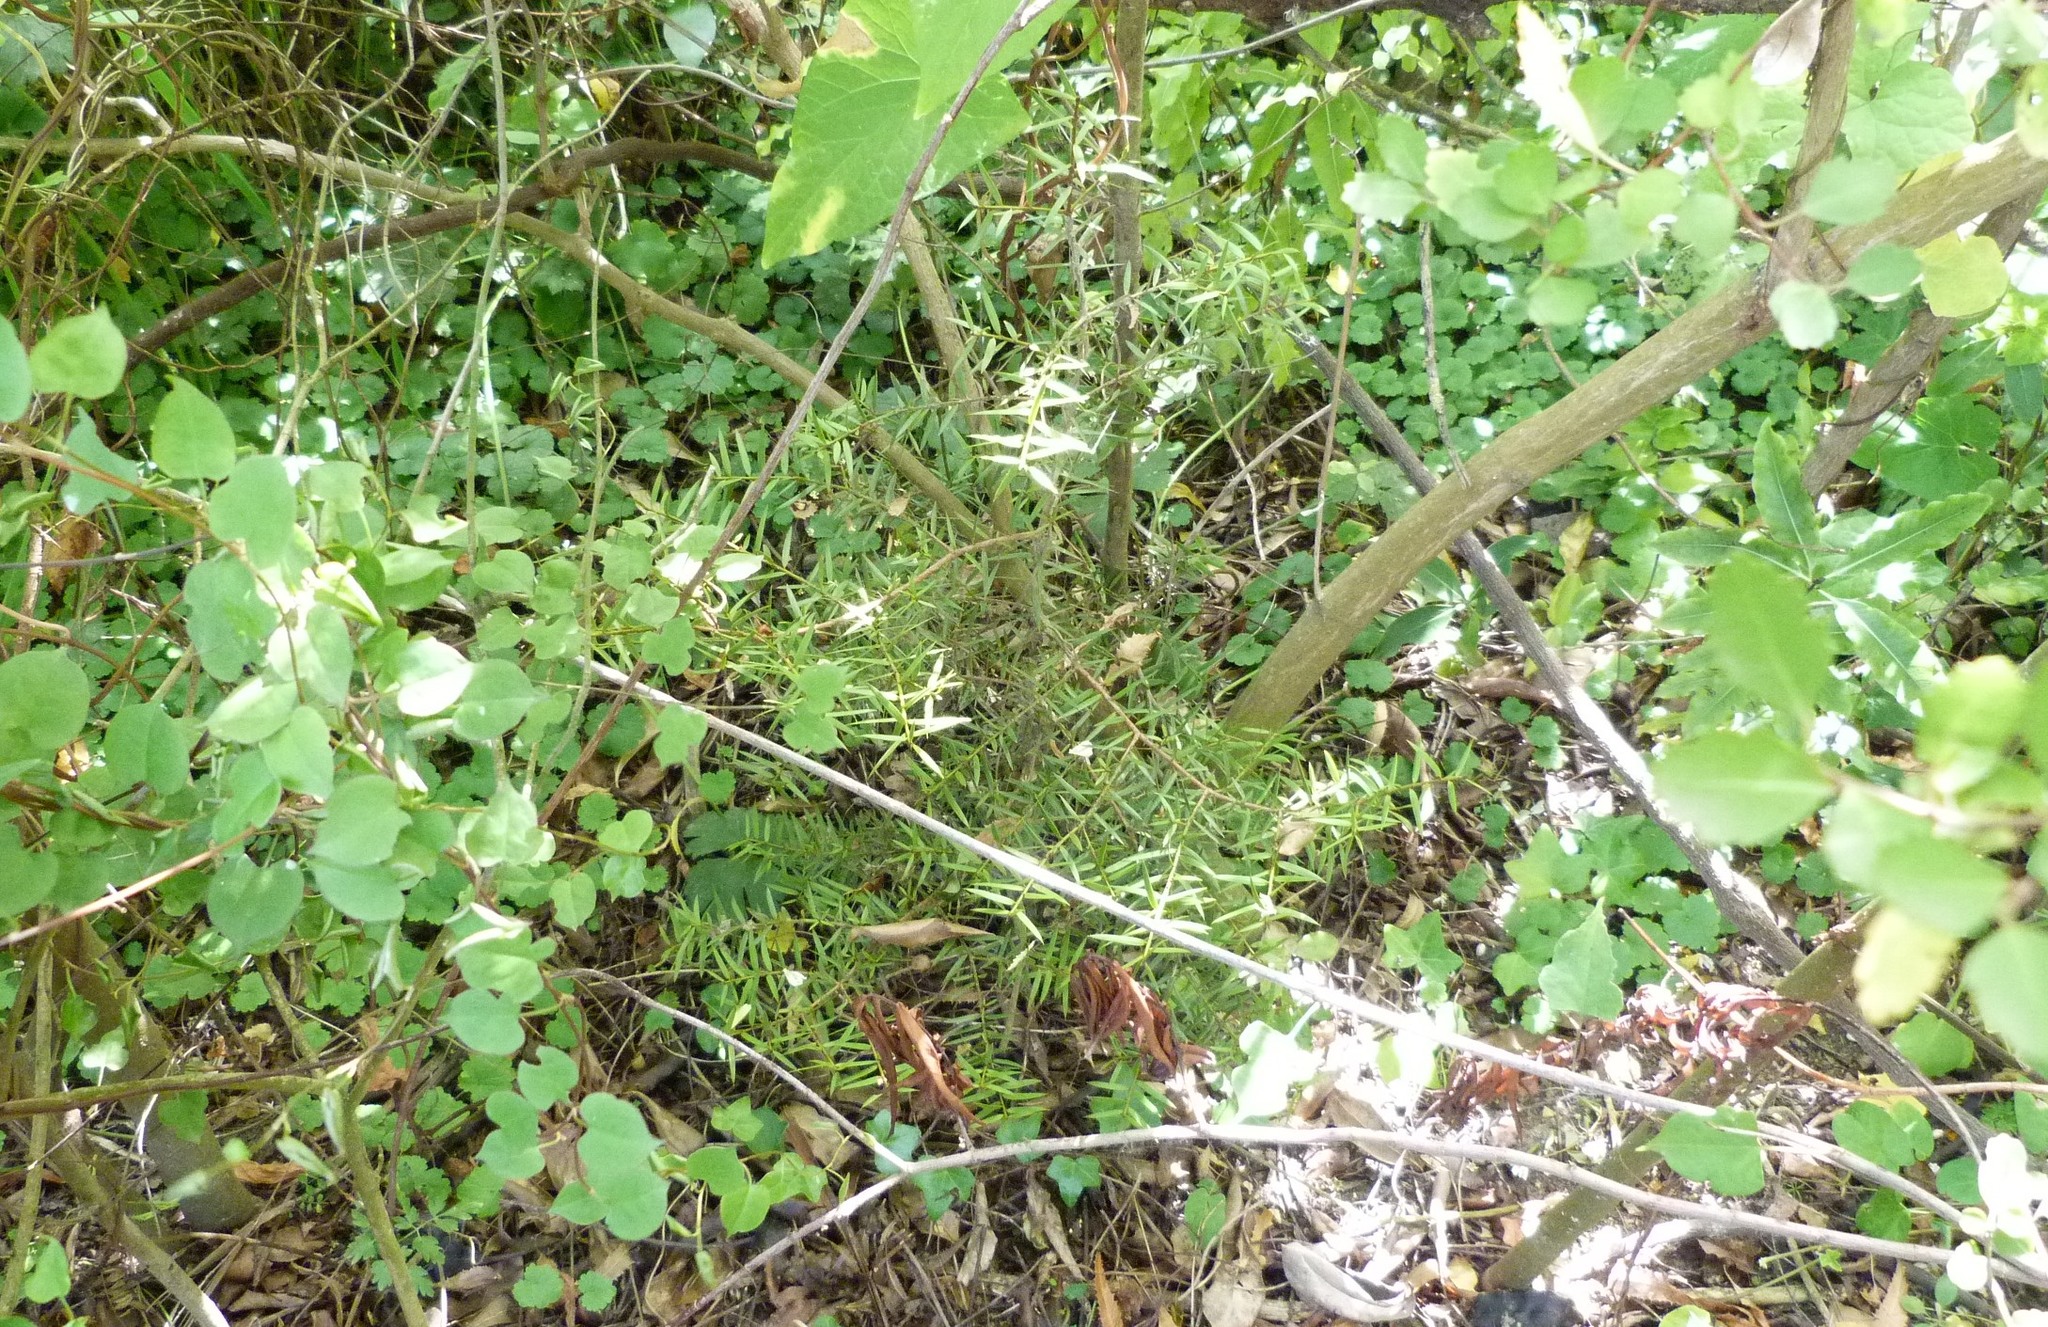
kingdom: Plantae
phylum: Tracheophyta
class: Pinopsida
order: Pinales
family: Podocarpaceae
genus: Podocarpus
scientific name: Podocarpus totara
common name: Totara
